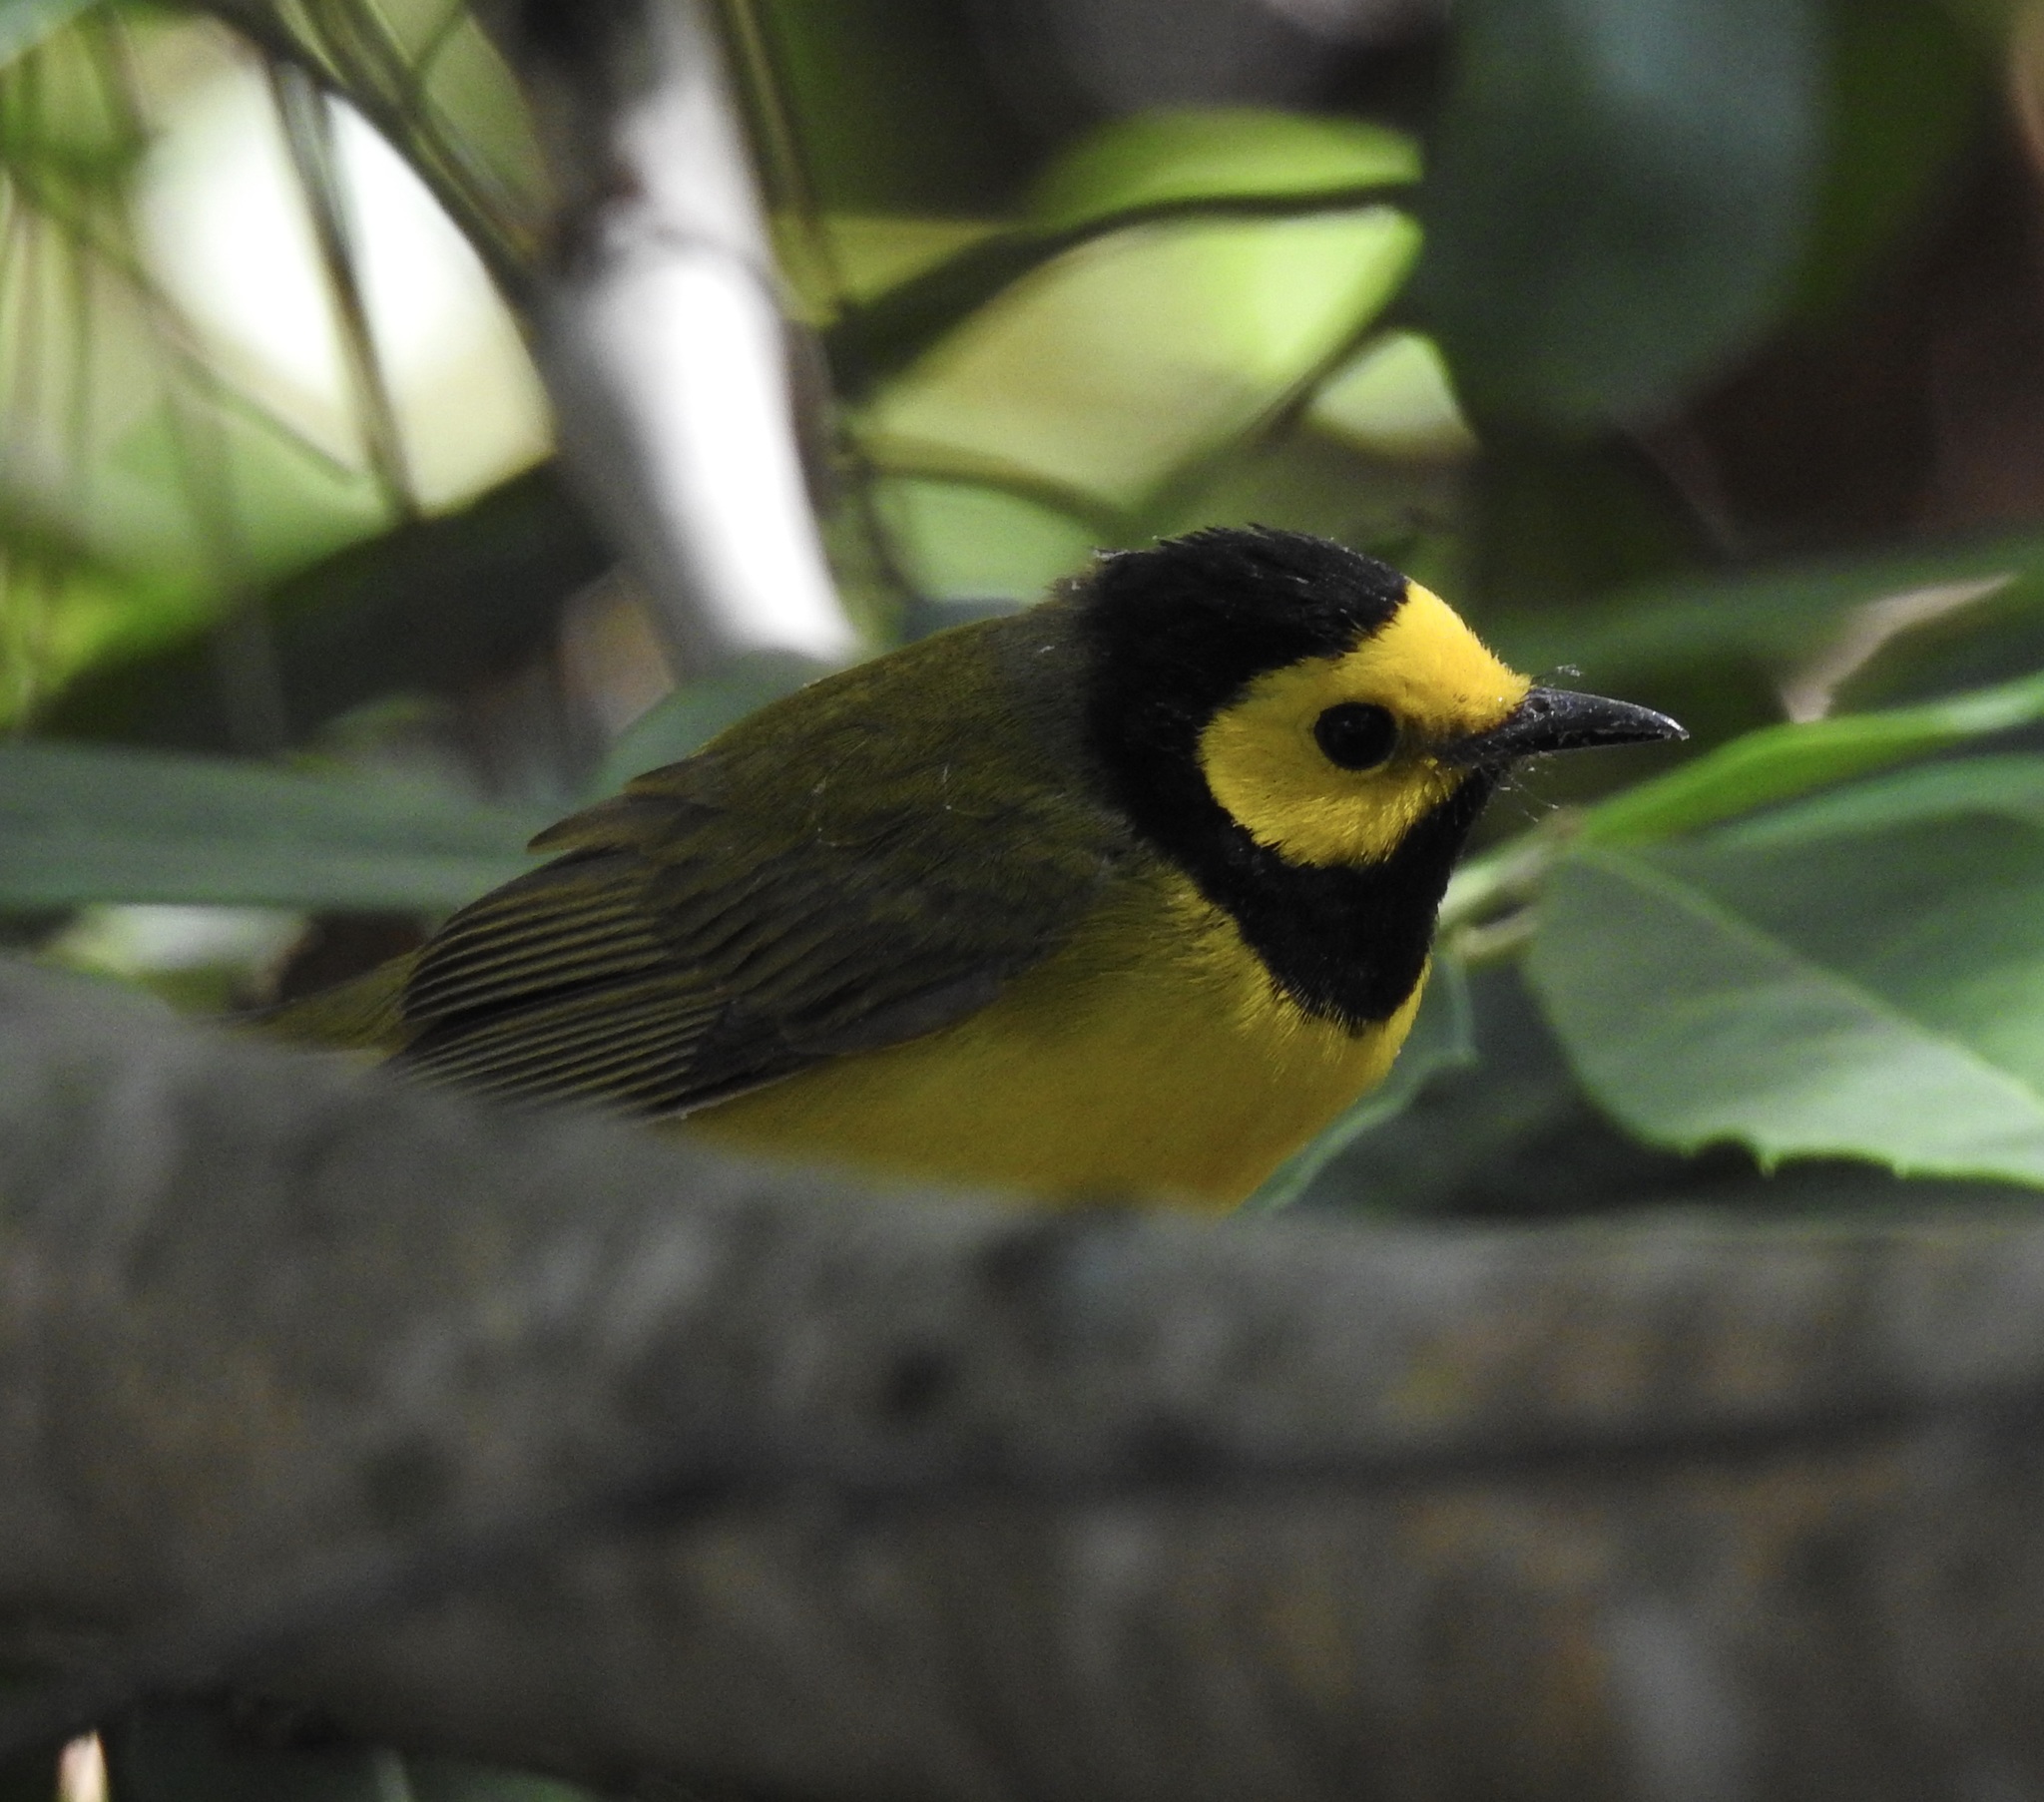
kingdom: Animalia
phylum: Chordata
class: Aves
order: Passeriformes
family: Parulidae
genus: Setophaga
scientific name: Setophaga citrina
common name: Hooded warbler
